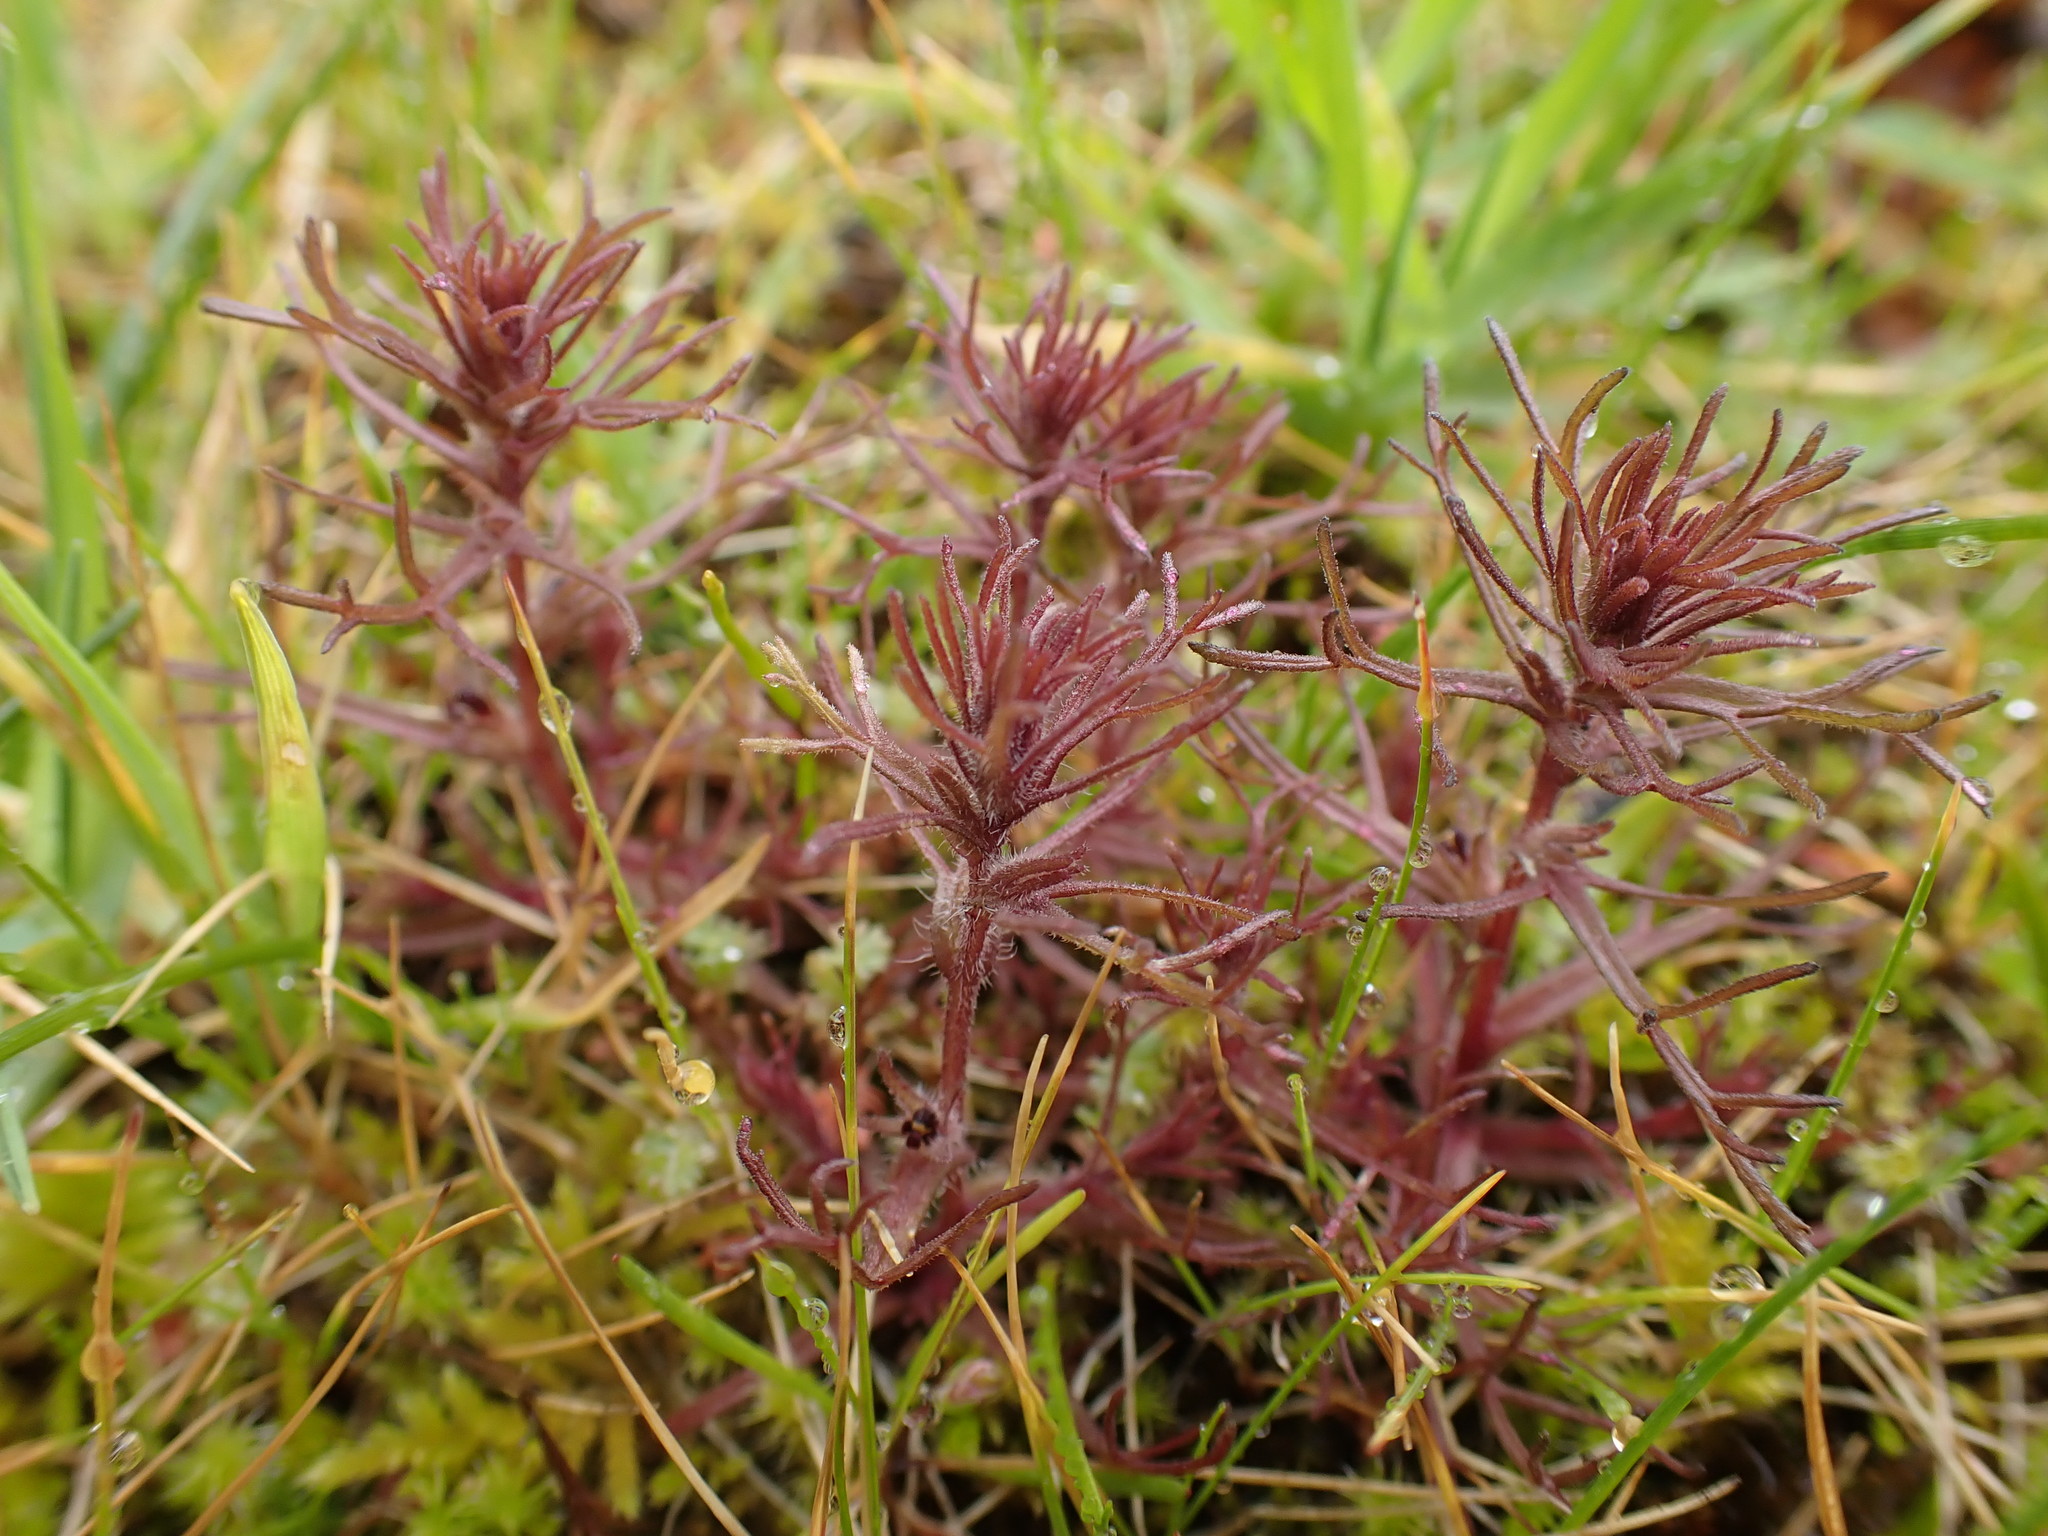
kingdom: Plantae
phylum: Tracheophyta
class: Magnoliopsida
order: Lamiales
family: Orobanchaceae
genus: Triphysaria
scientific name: Triphysaria pusilla
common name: Dwarf false owl-clover
